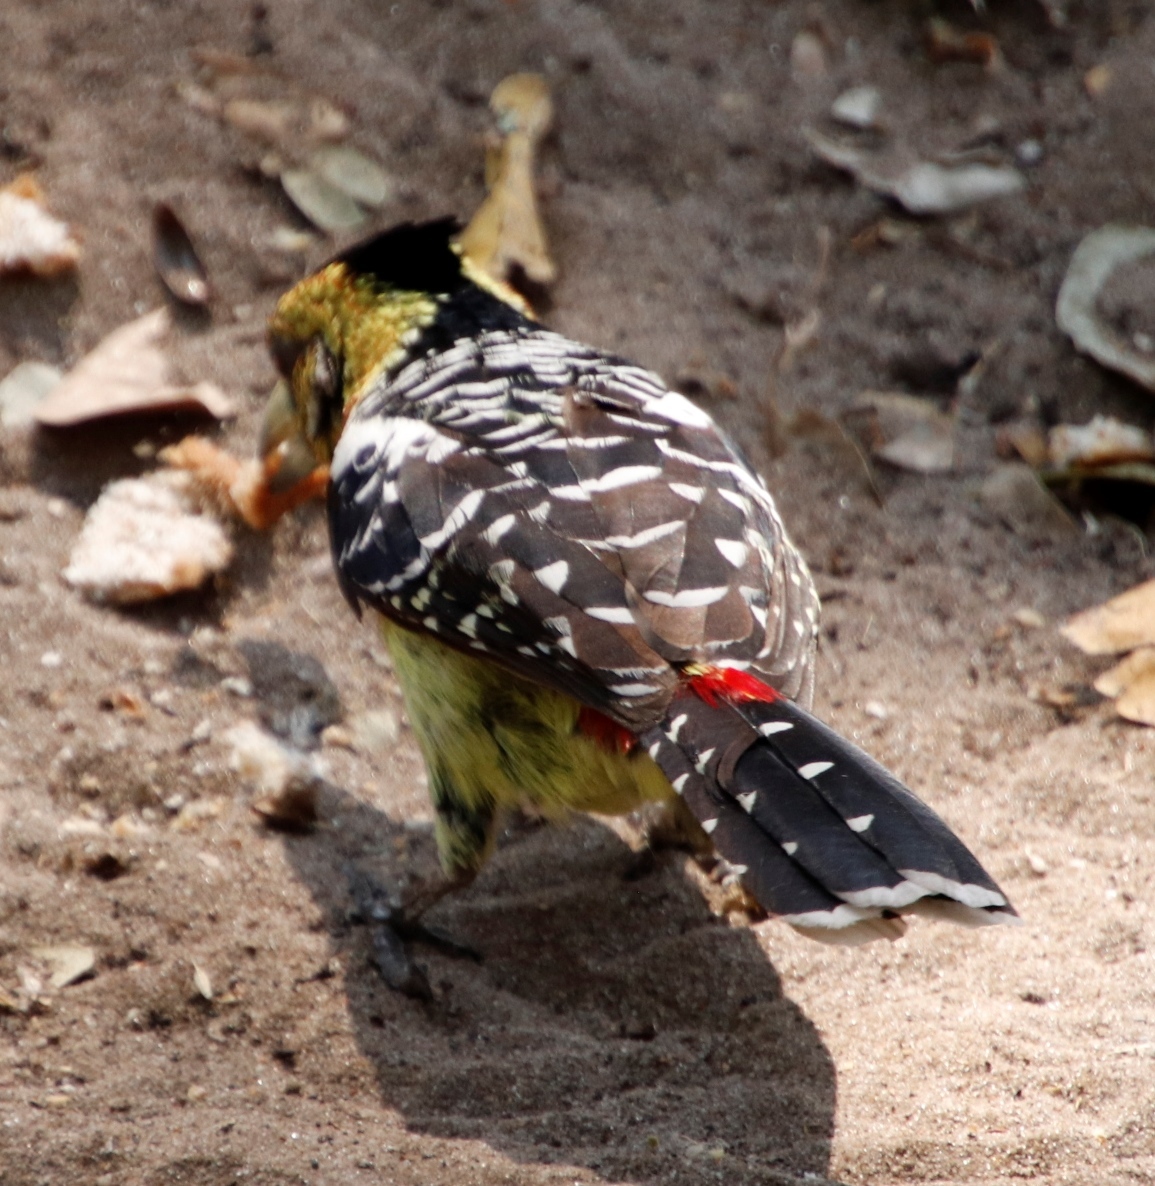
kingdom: Animalia
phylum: Chordata
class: Aves
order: Piciformes
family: Lybiidae
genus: Trachyphonus
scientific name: Trachyphonus vaillantii
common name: Crested barbet
